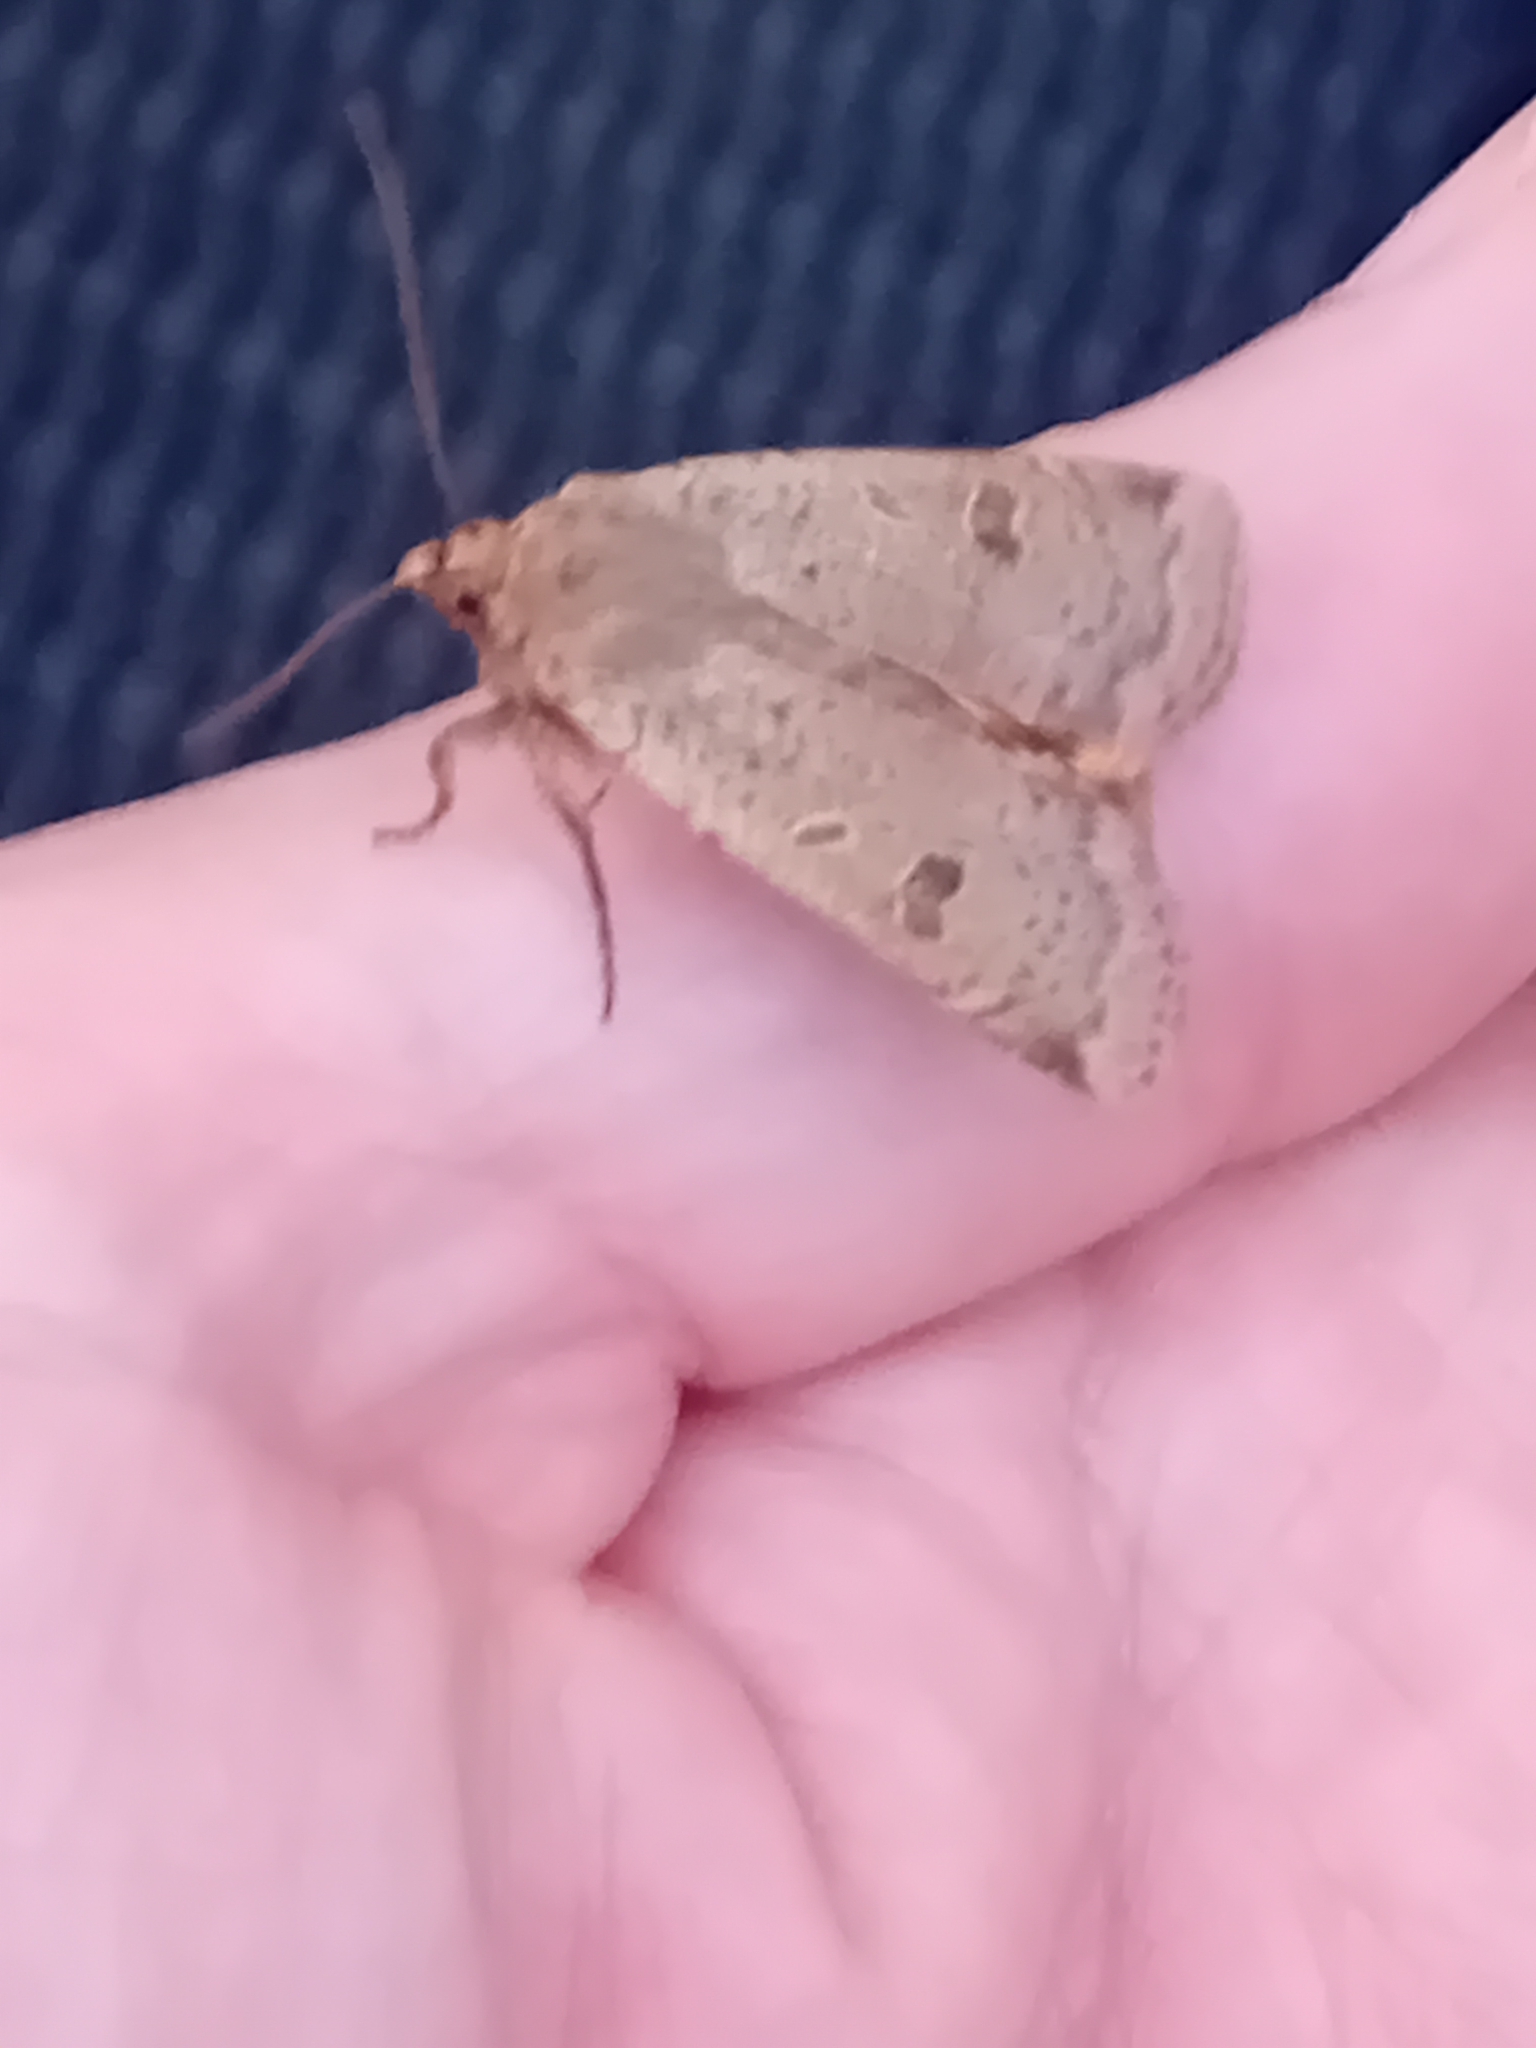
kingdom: Animalia
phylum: Arthropoda
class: Insecta
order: Lepidoptera
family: Noctuidae
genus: Noctua
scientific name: Noctua comes
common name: Lesser yellow underwing
